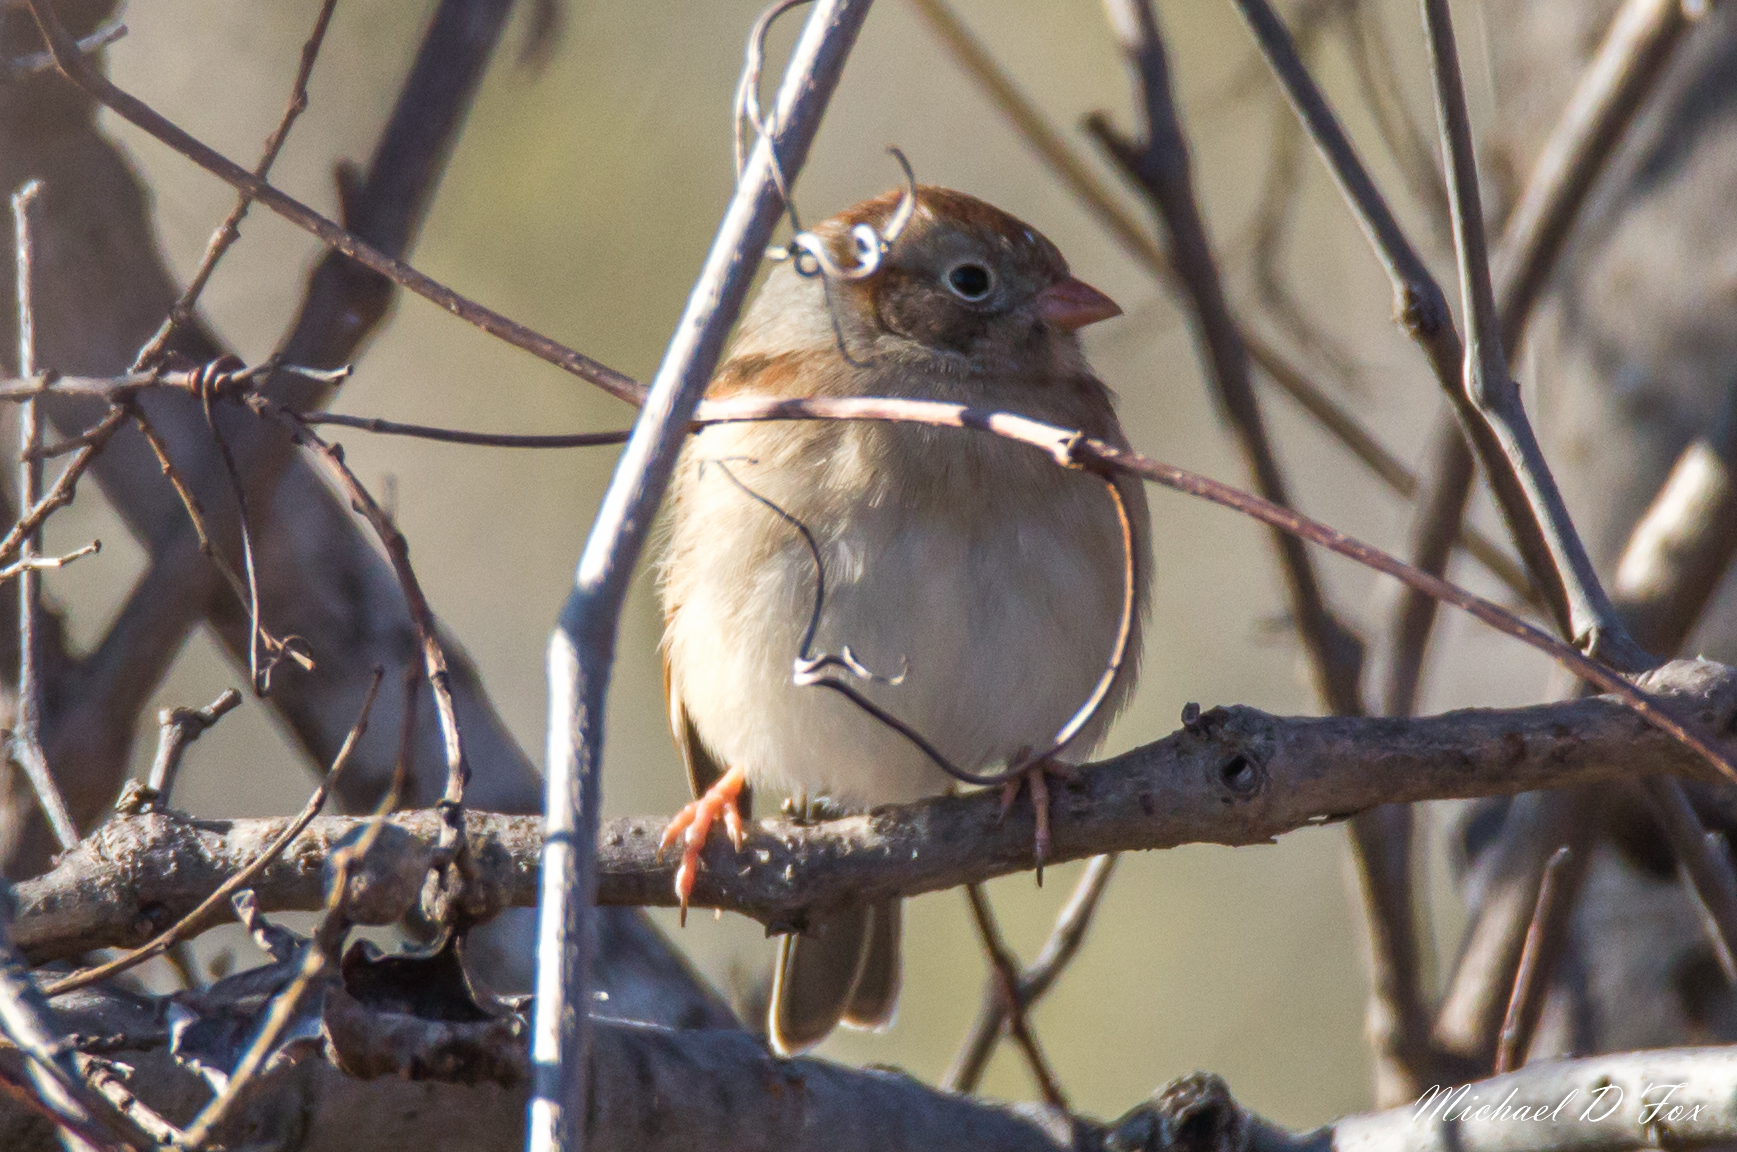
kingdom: Animalia
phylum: Chordata
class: Aves
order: Passeriformes
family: Passerellidae
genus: Spizella
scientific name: Spizella pusilla
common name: Field sparrow
